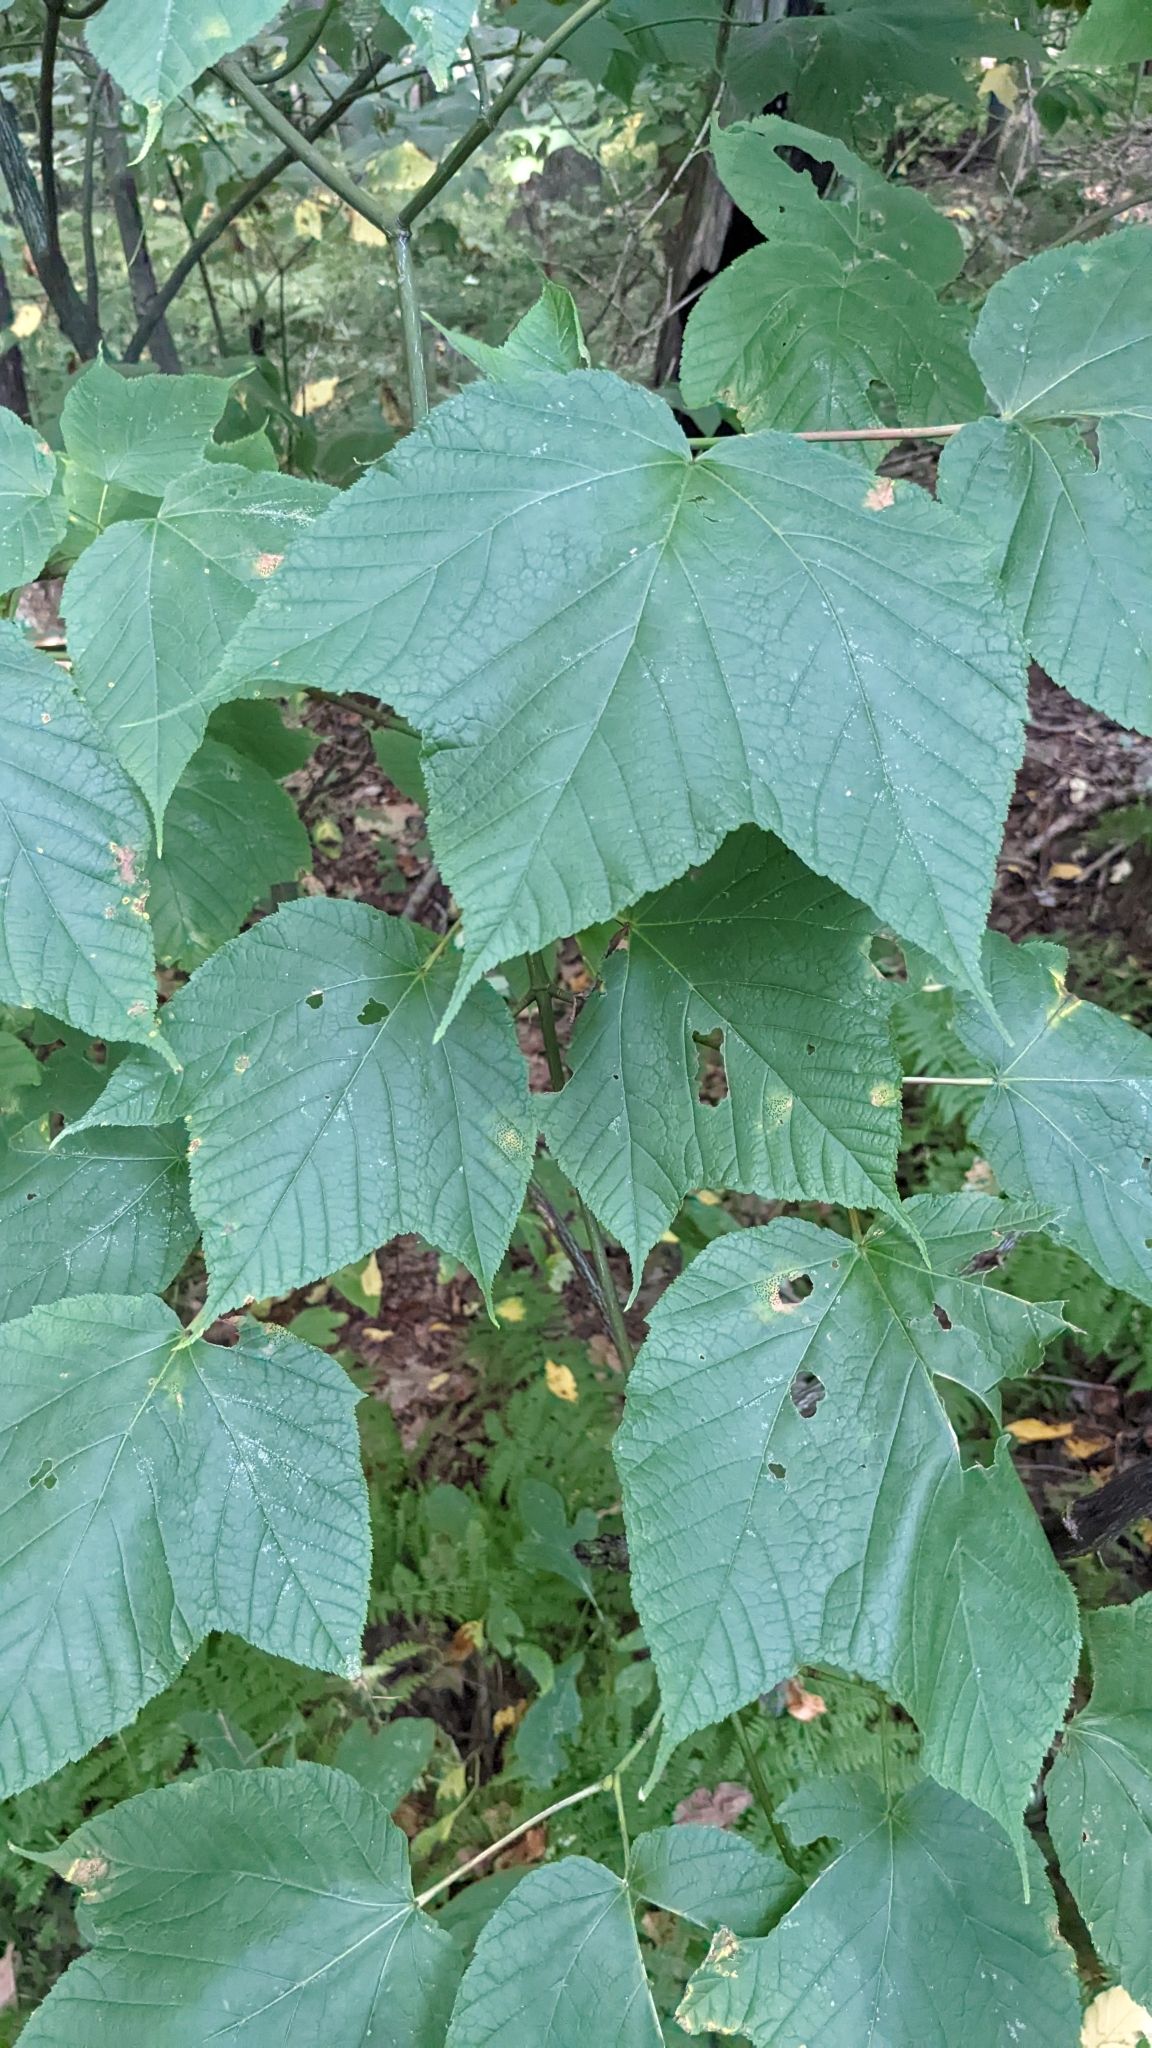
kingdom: Plantae
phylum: Tracheophyta
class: Magnoliopsida
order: Sapindales
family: Sapindaceae
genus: Acer
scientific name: Acer pensylvanicum
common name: Moosewood
